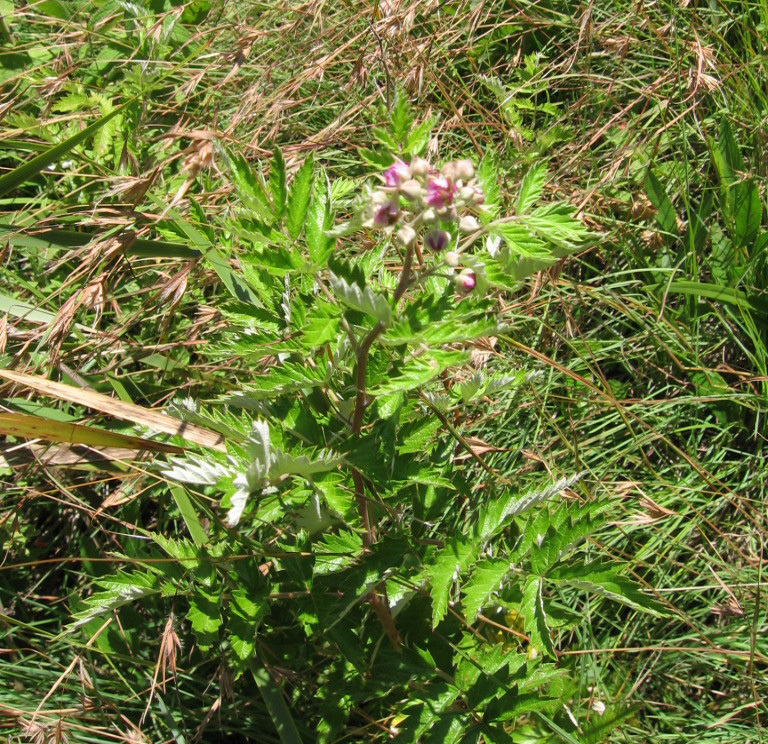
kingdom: Plantae
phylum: Tracheophyta
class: Magnoliopsida
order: Rosales
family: Rosaceae
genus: Rubus
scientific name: Rubus ludwigii
